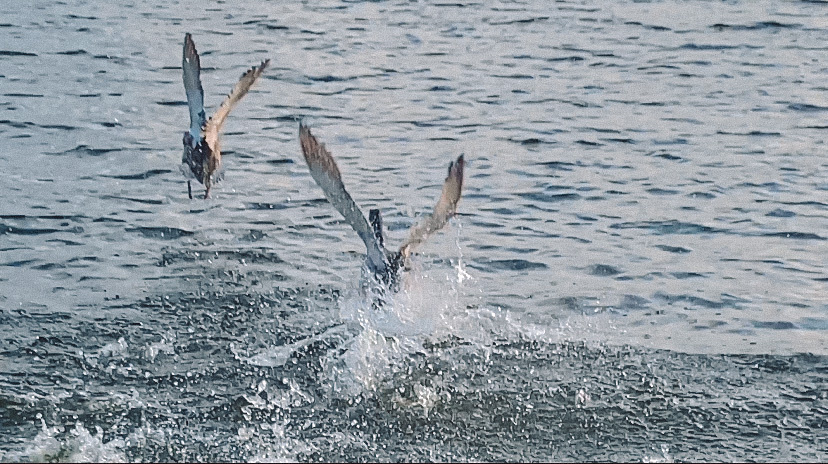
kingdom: Animalia
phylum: Chordata
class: Aves
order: Anseriformes
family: Anatidae
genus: Anas
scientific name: Anas platyrhynchos
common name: Mallard
